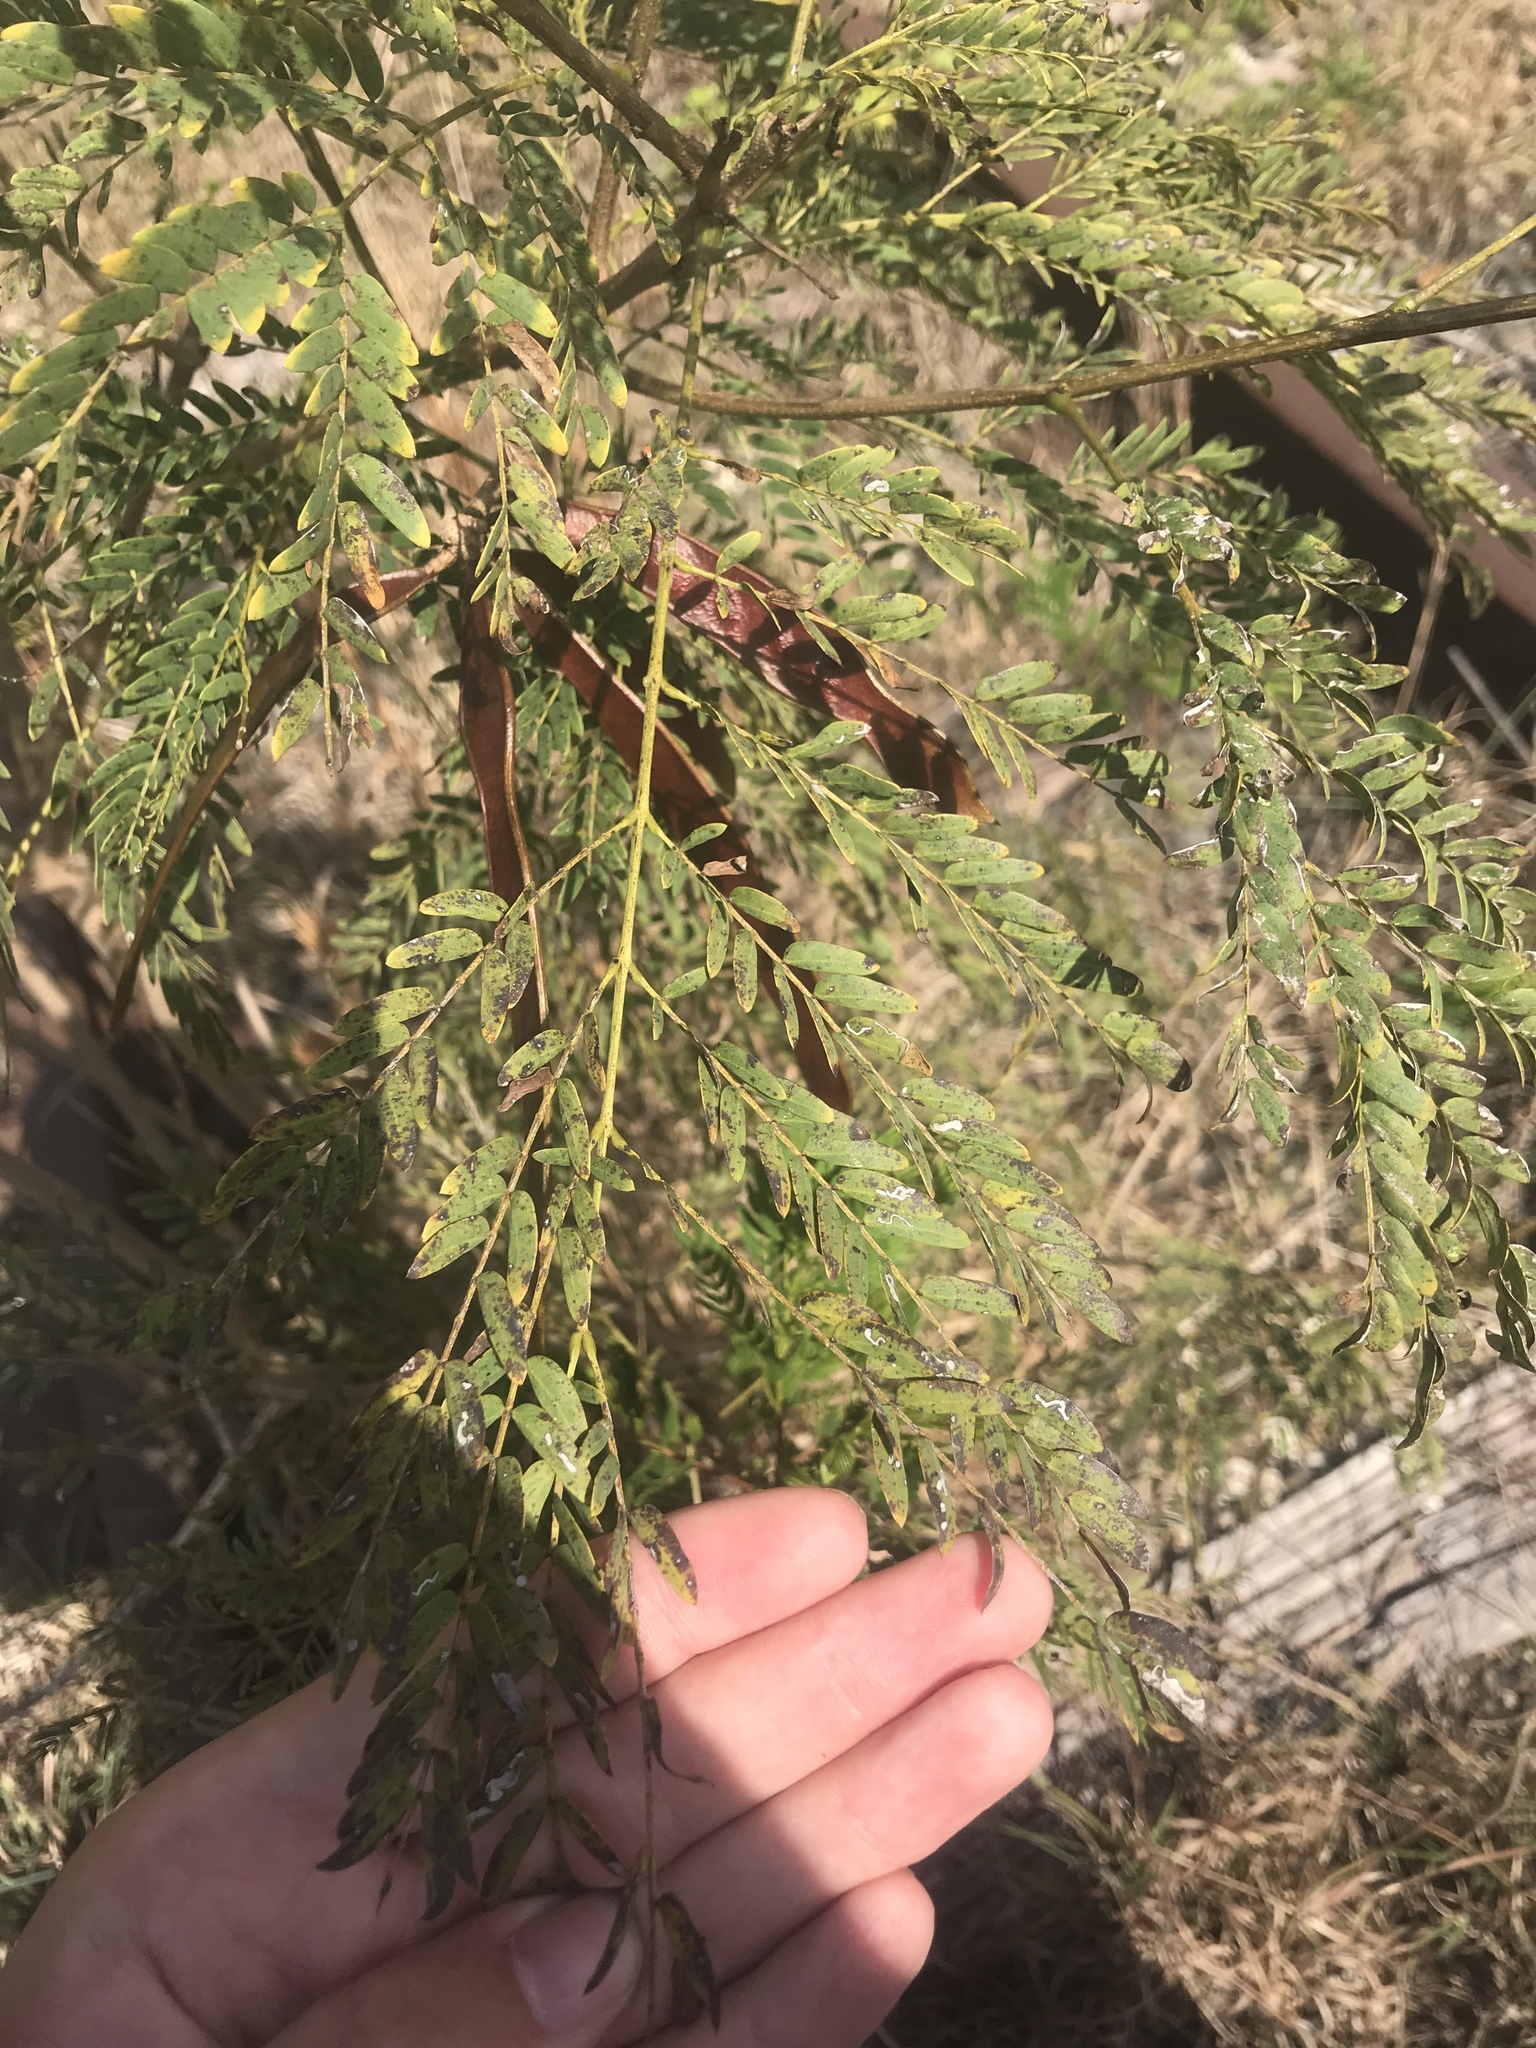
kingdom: Plantae
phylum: Tracheophyta
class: Magnoliopsida
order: Fabales
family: Fabaceae
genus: Leucaena
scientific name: Leucaena leucocephala
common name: White leadtree
